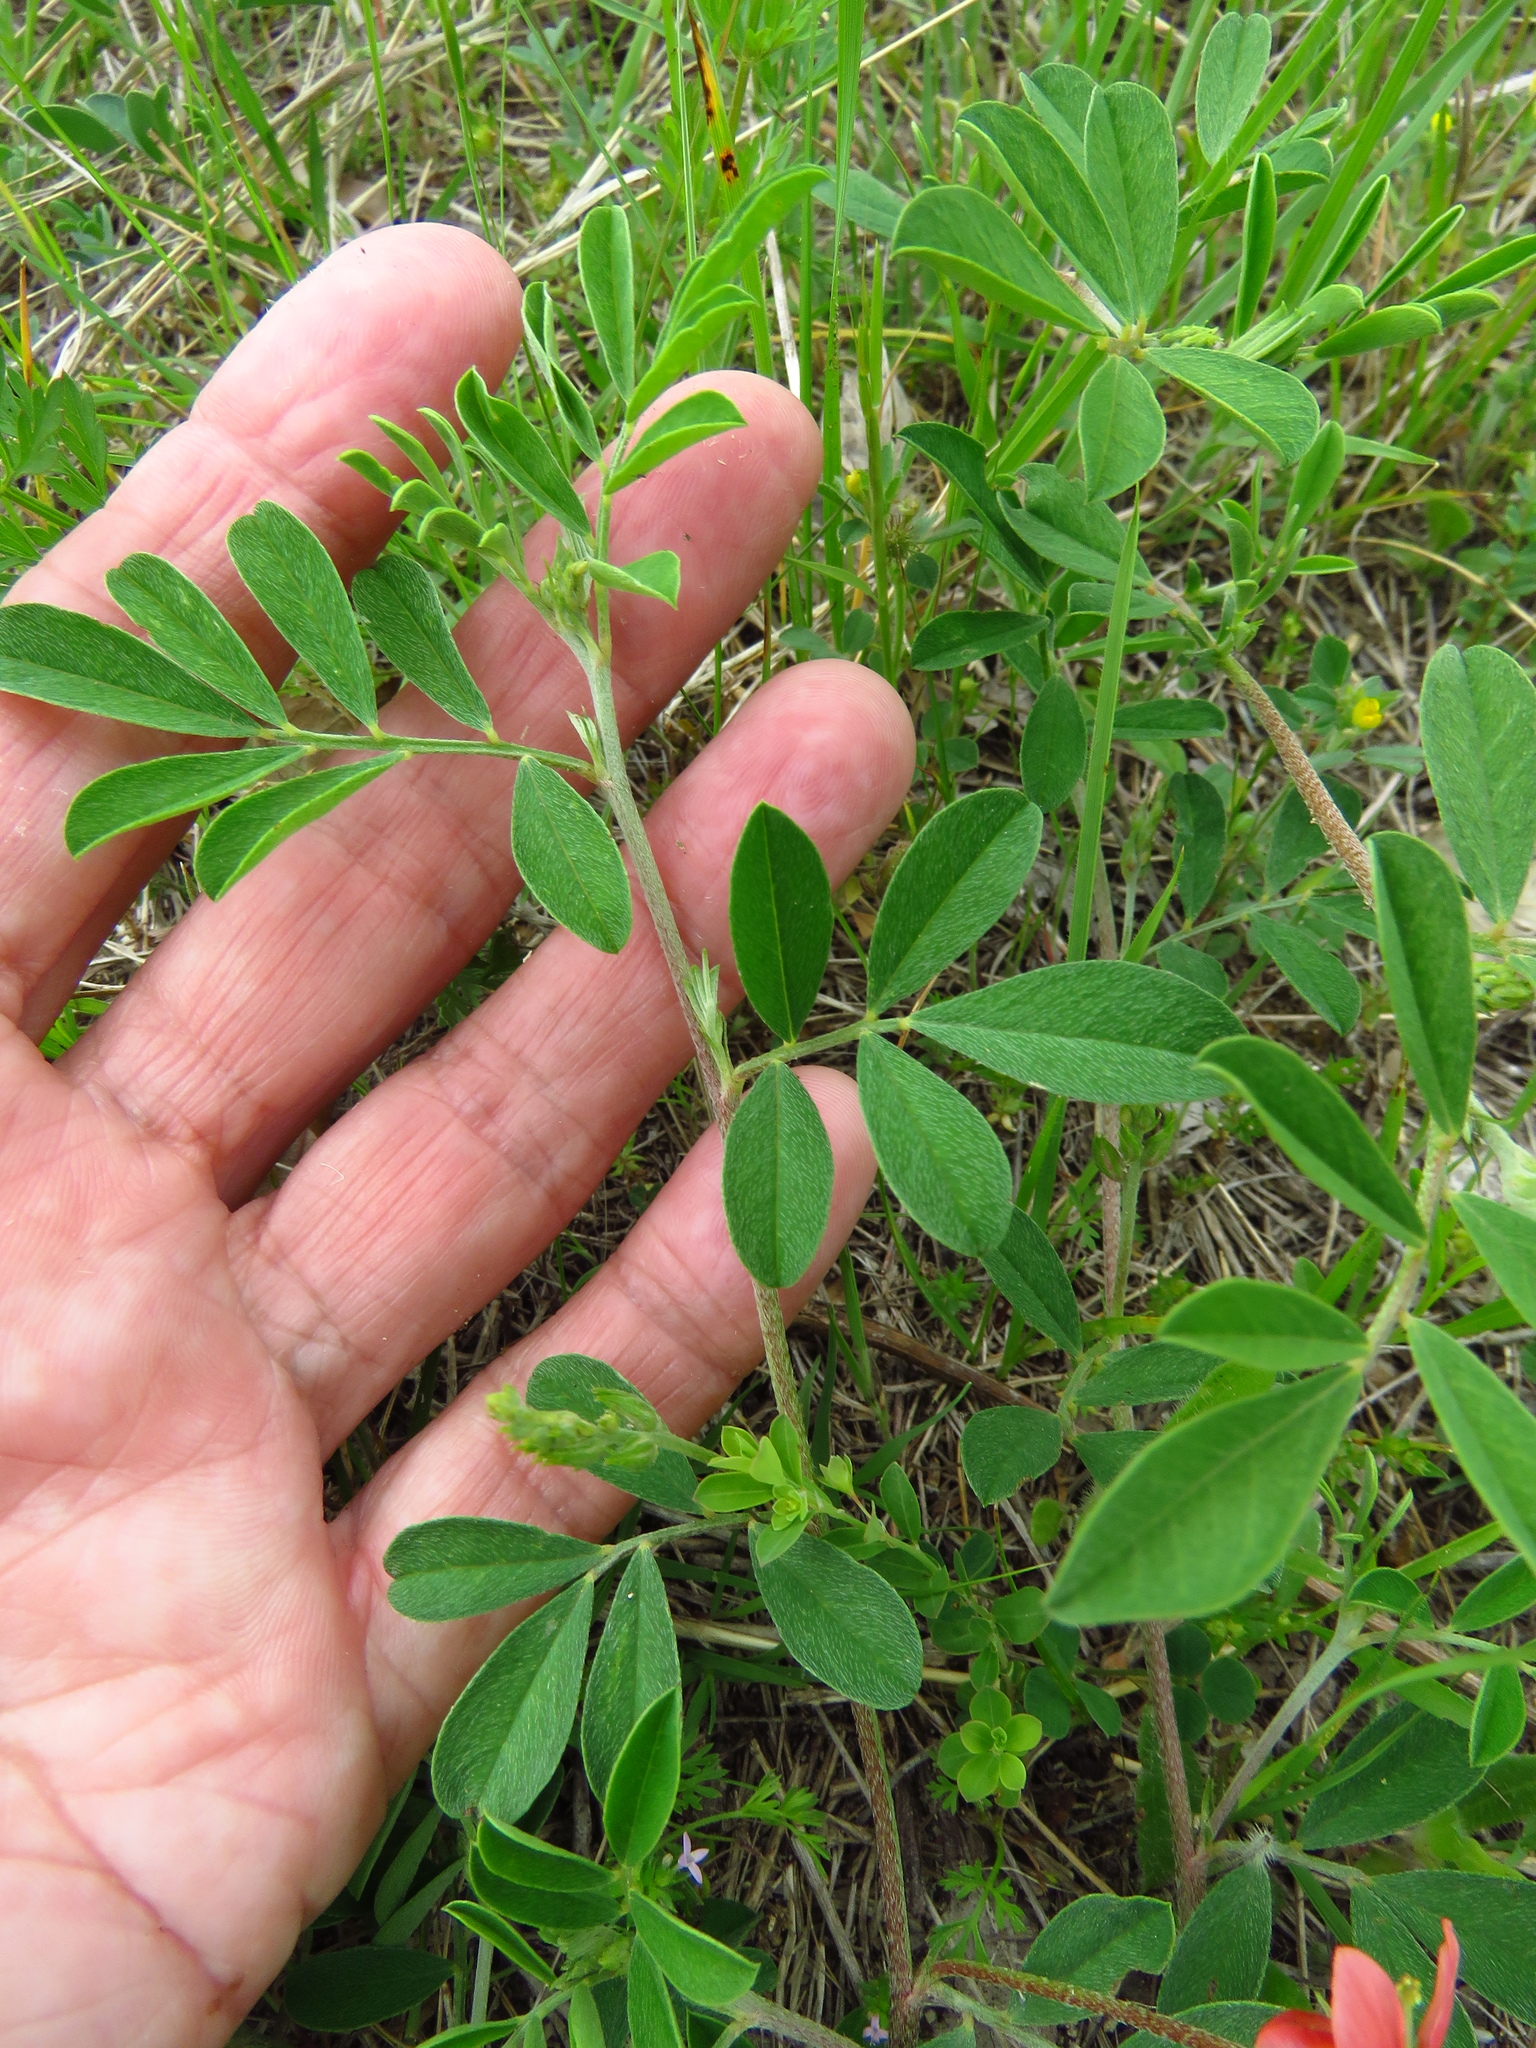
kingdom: Plantae
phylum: Tracheophyta
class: Magnoliopsida
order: Fabales
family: Fabaceae
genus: Indigofera
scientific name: Indigofera miniata
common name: Coast indigo
